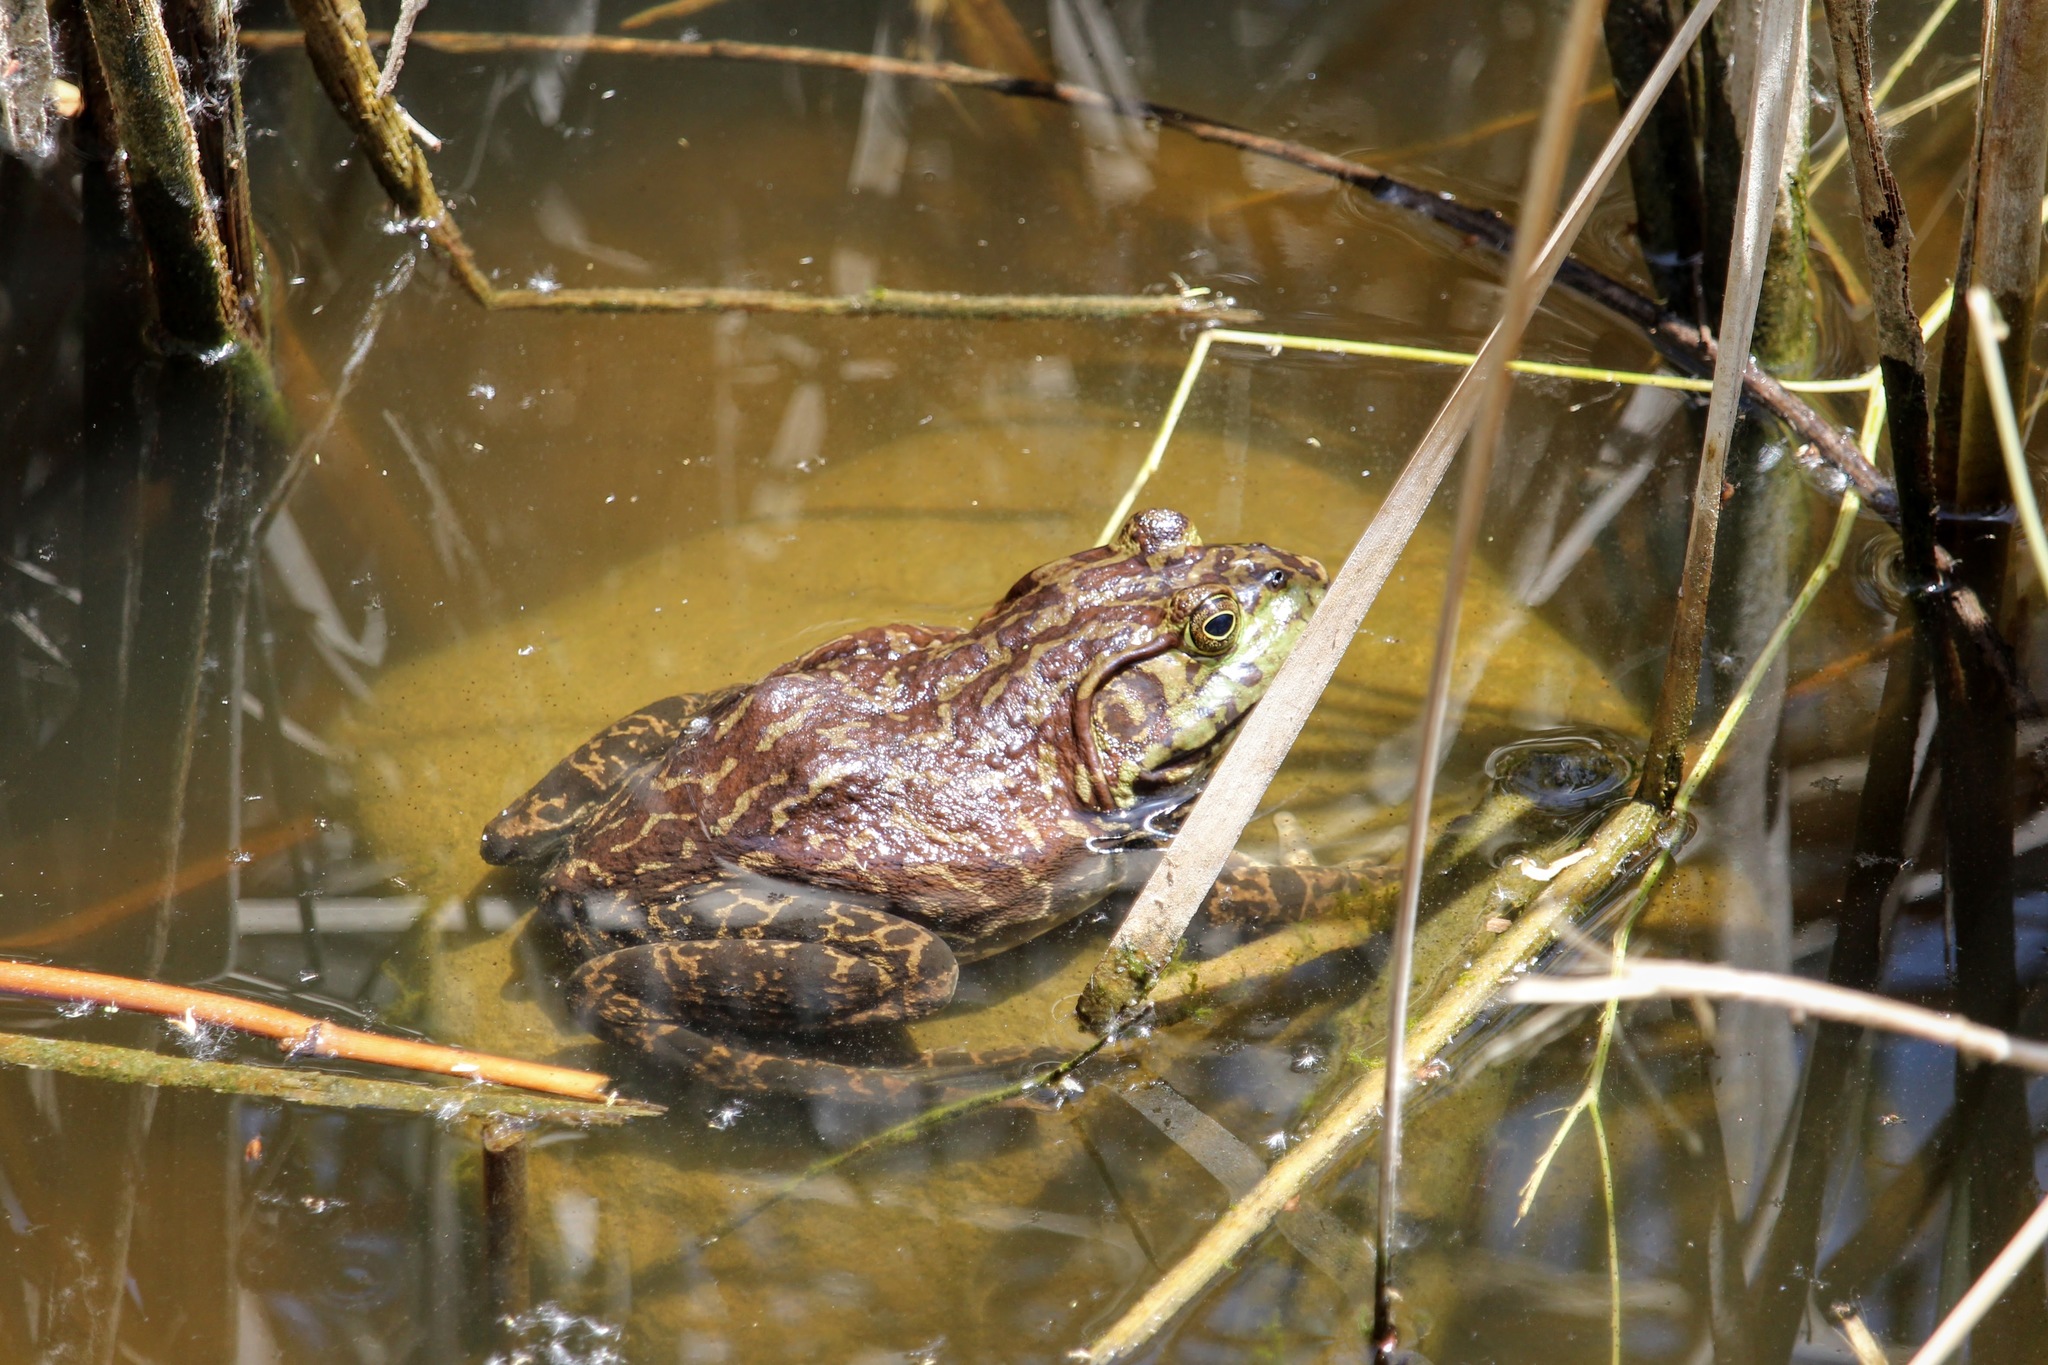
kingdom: Animalia
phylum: Chordata
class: Amphibia
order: Anura
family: Ranidae
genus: Lithobates
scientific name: Lithobates catesbeianus
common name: American bullfrog
